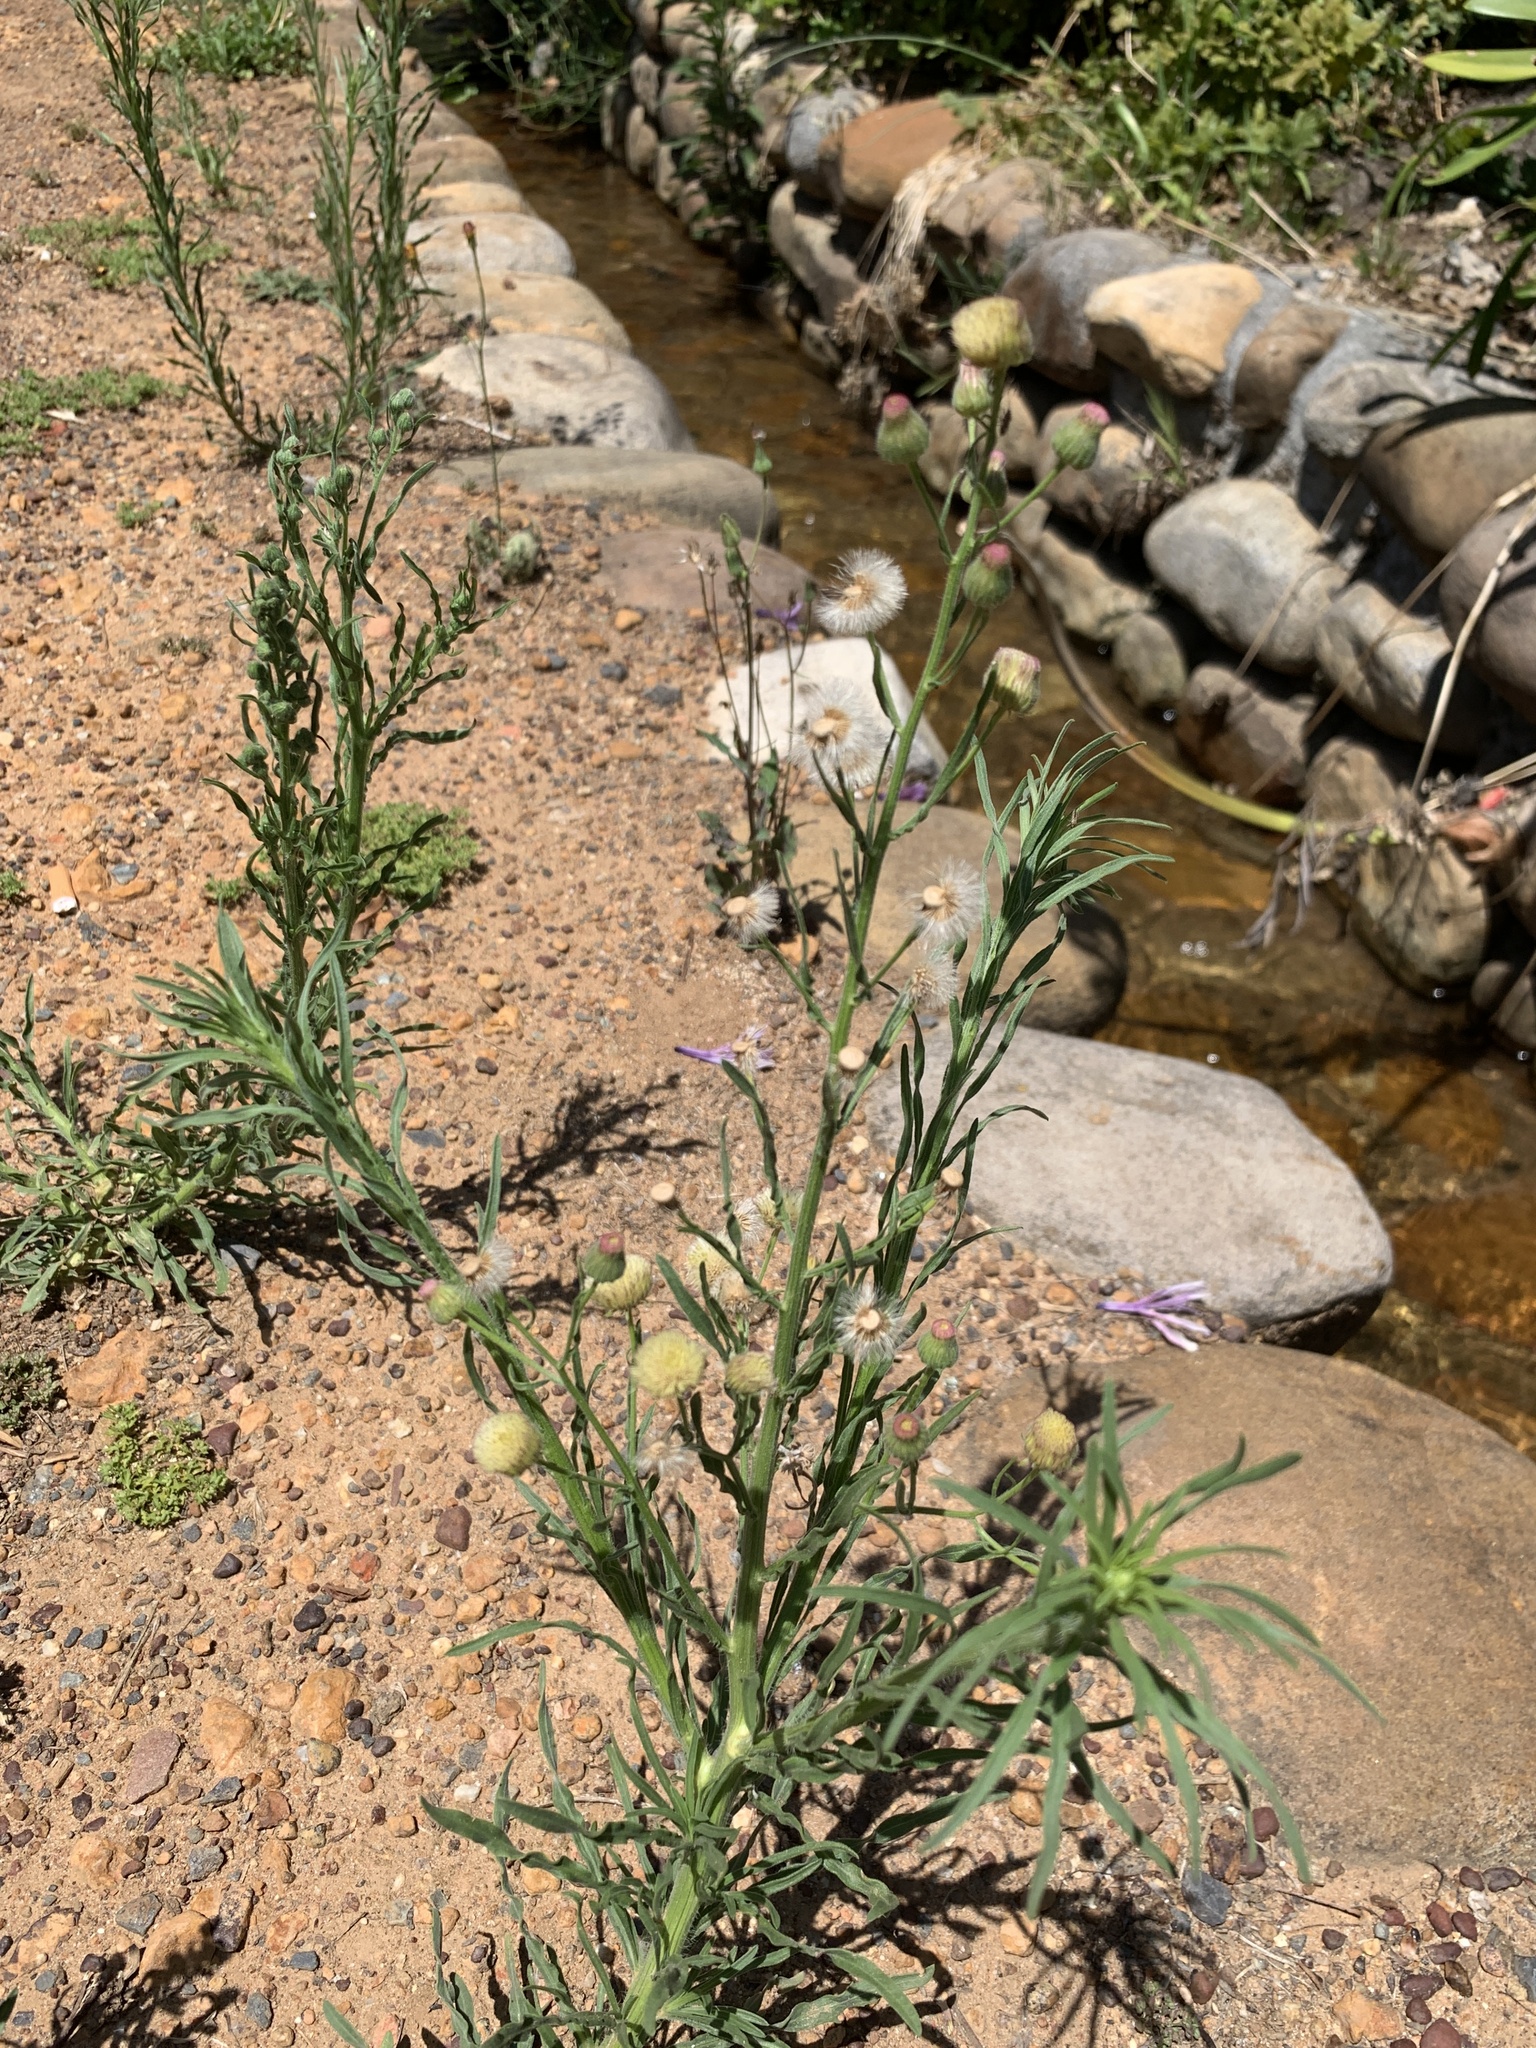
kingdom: Plantae
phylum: Tracheophyta
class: Magnoliopsida
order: Asterales
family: Asteraceae
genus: Erigeron
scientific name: Erigeron bonariensis
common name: Argentine fleabane
